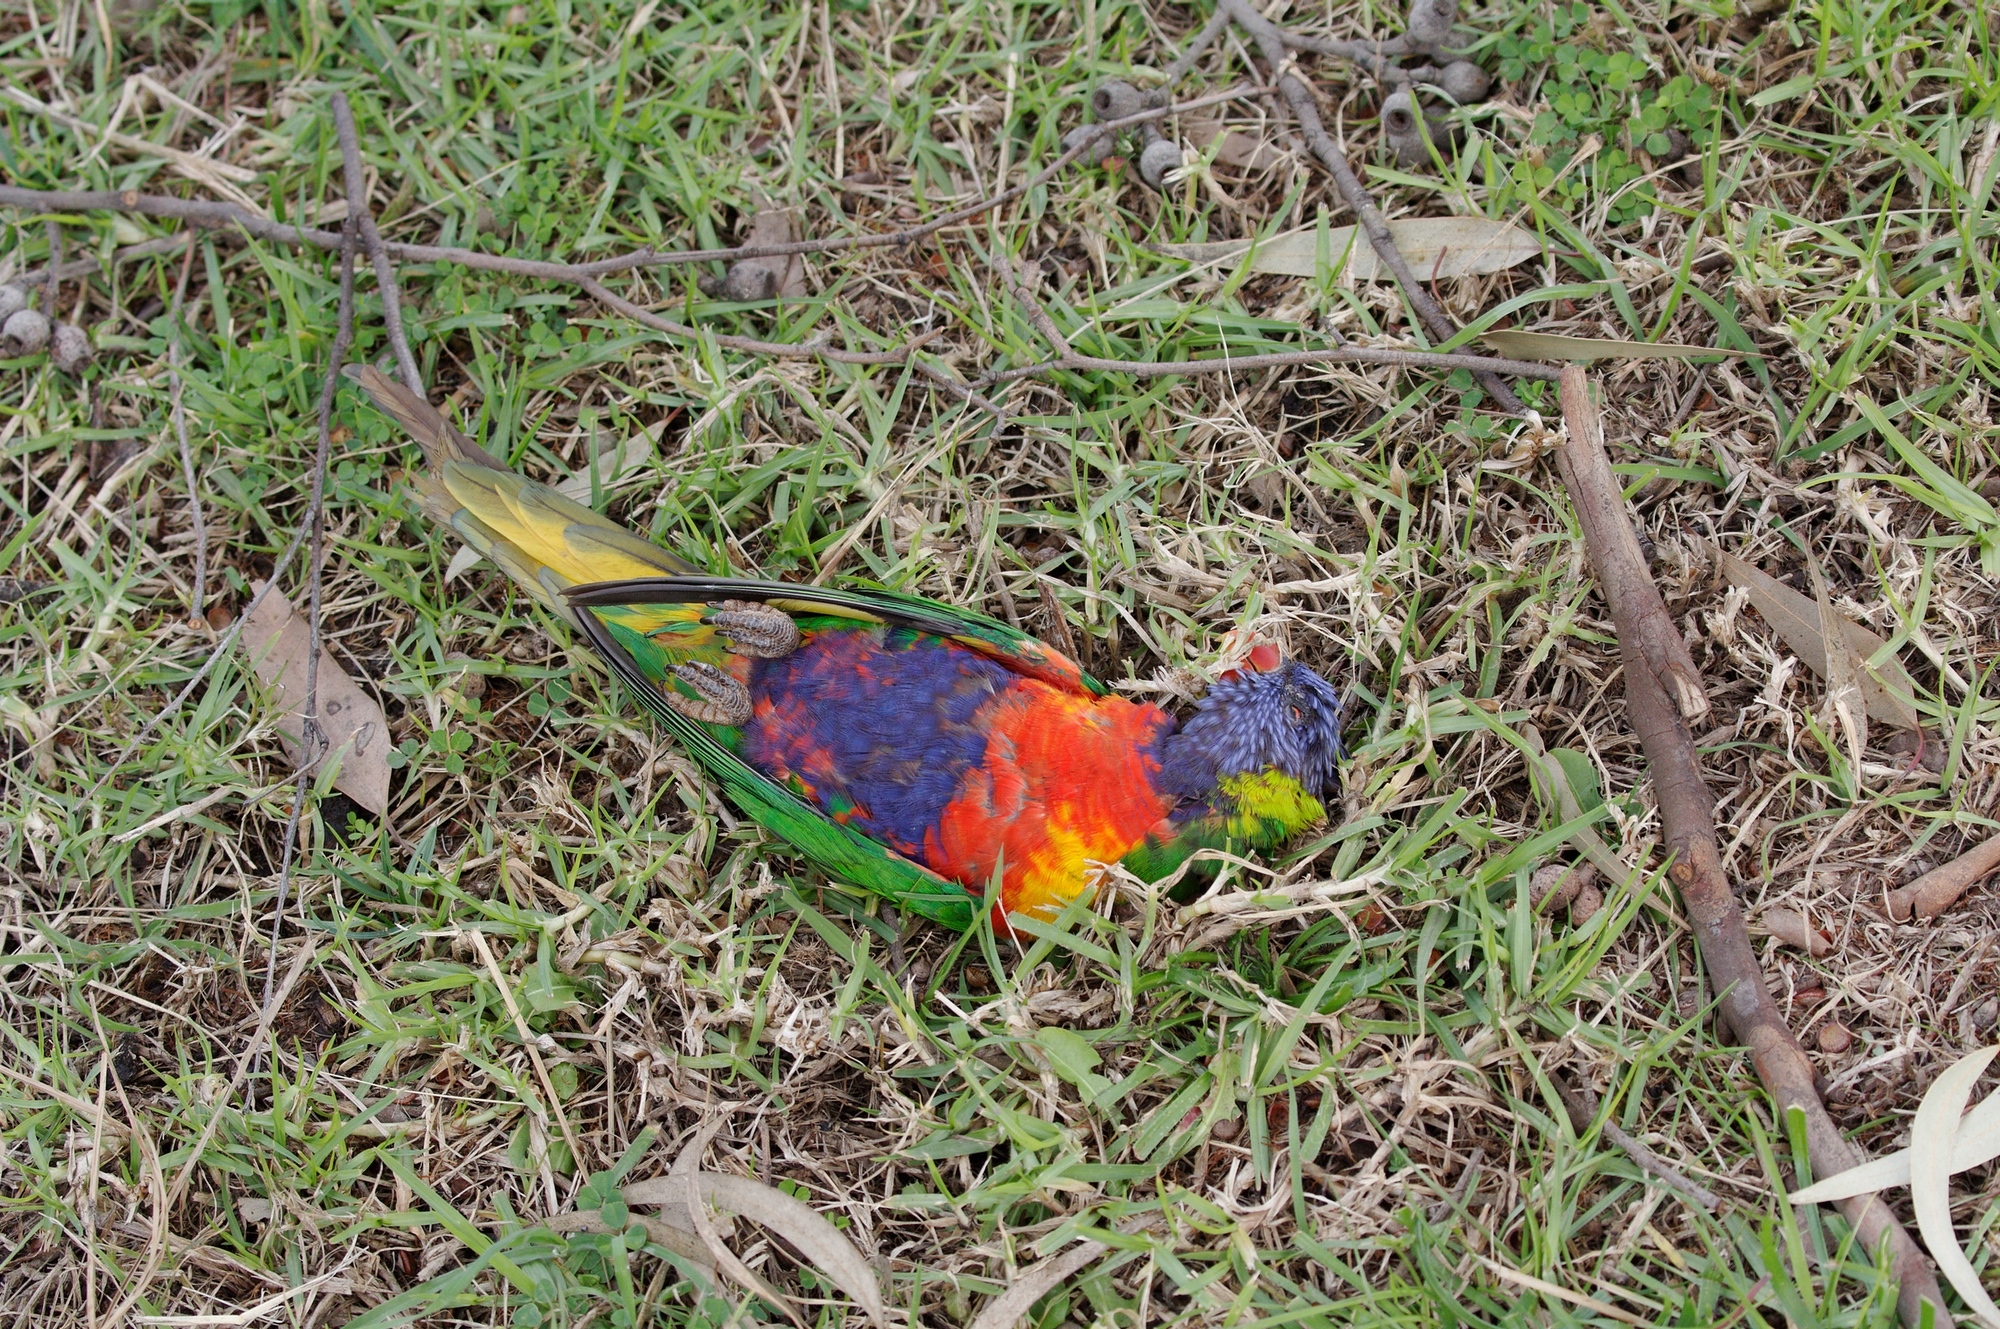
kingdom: Animalia
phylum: Chordata
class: Aves
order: Psittaciformes
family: Psittacidae
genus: Trichoglossus
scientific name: Trichoglossus haematodus
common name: Coconut lorikeet
